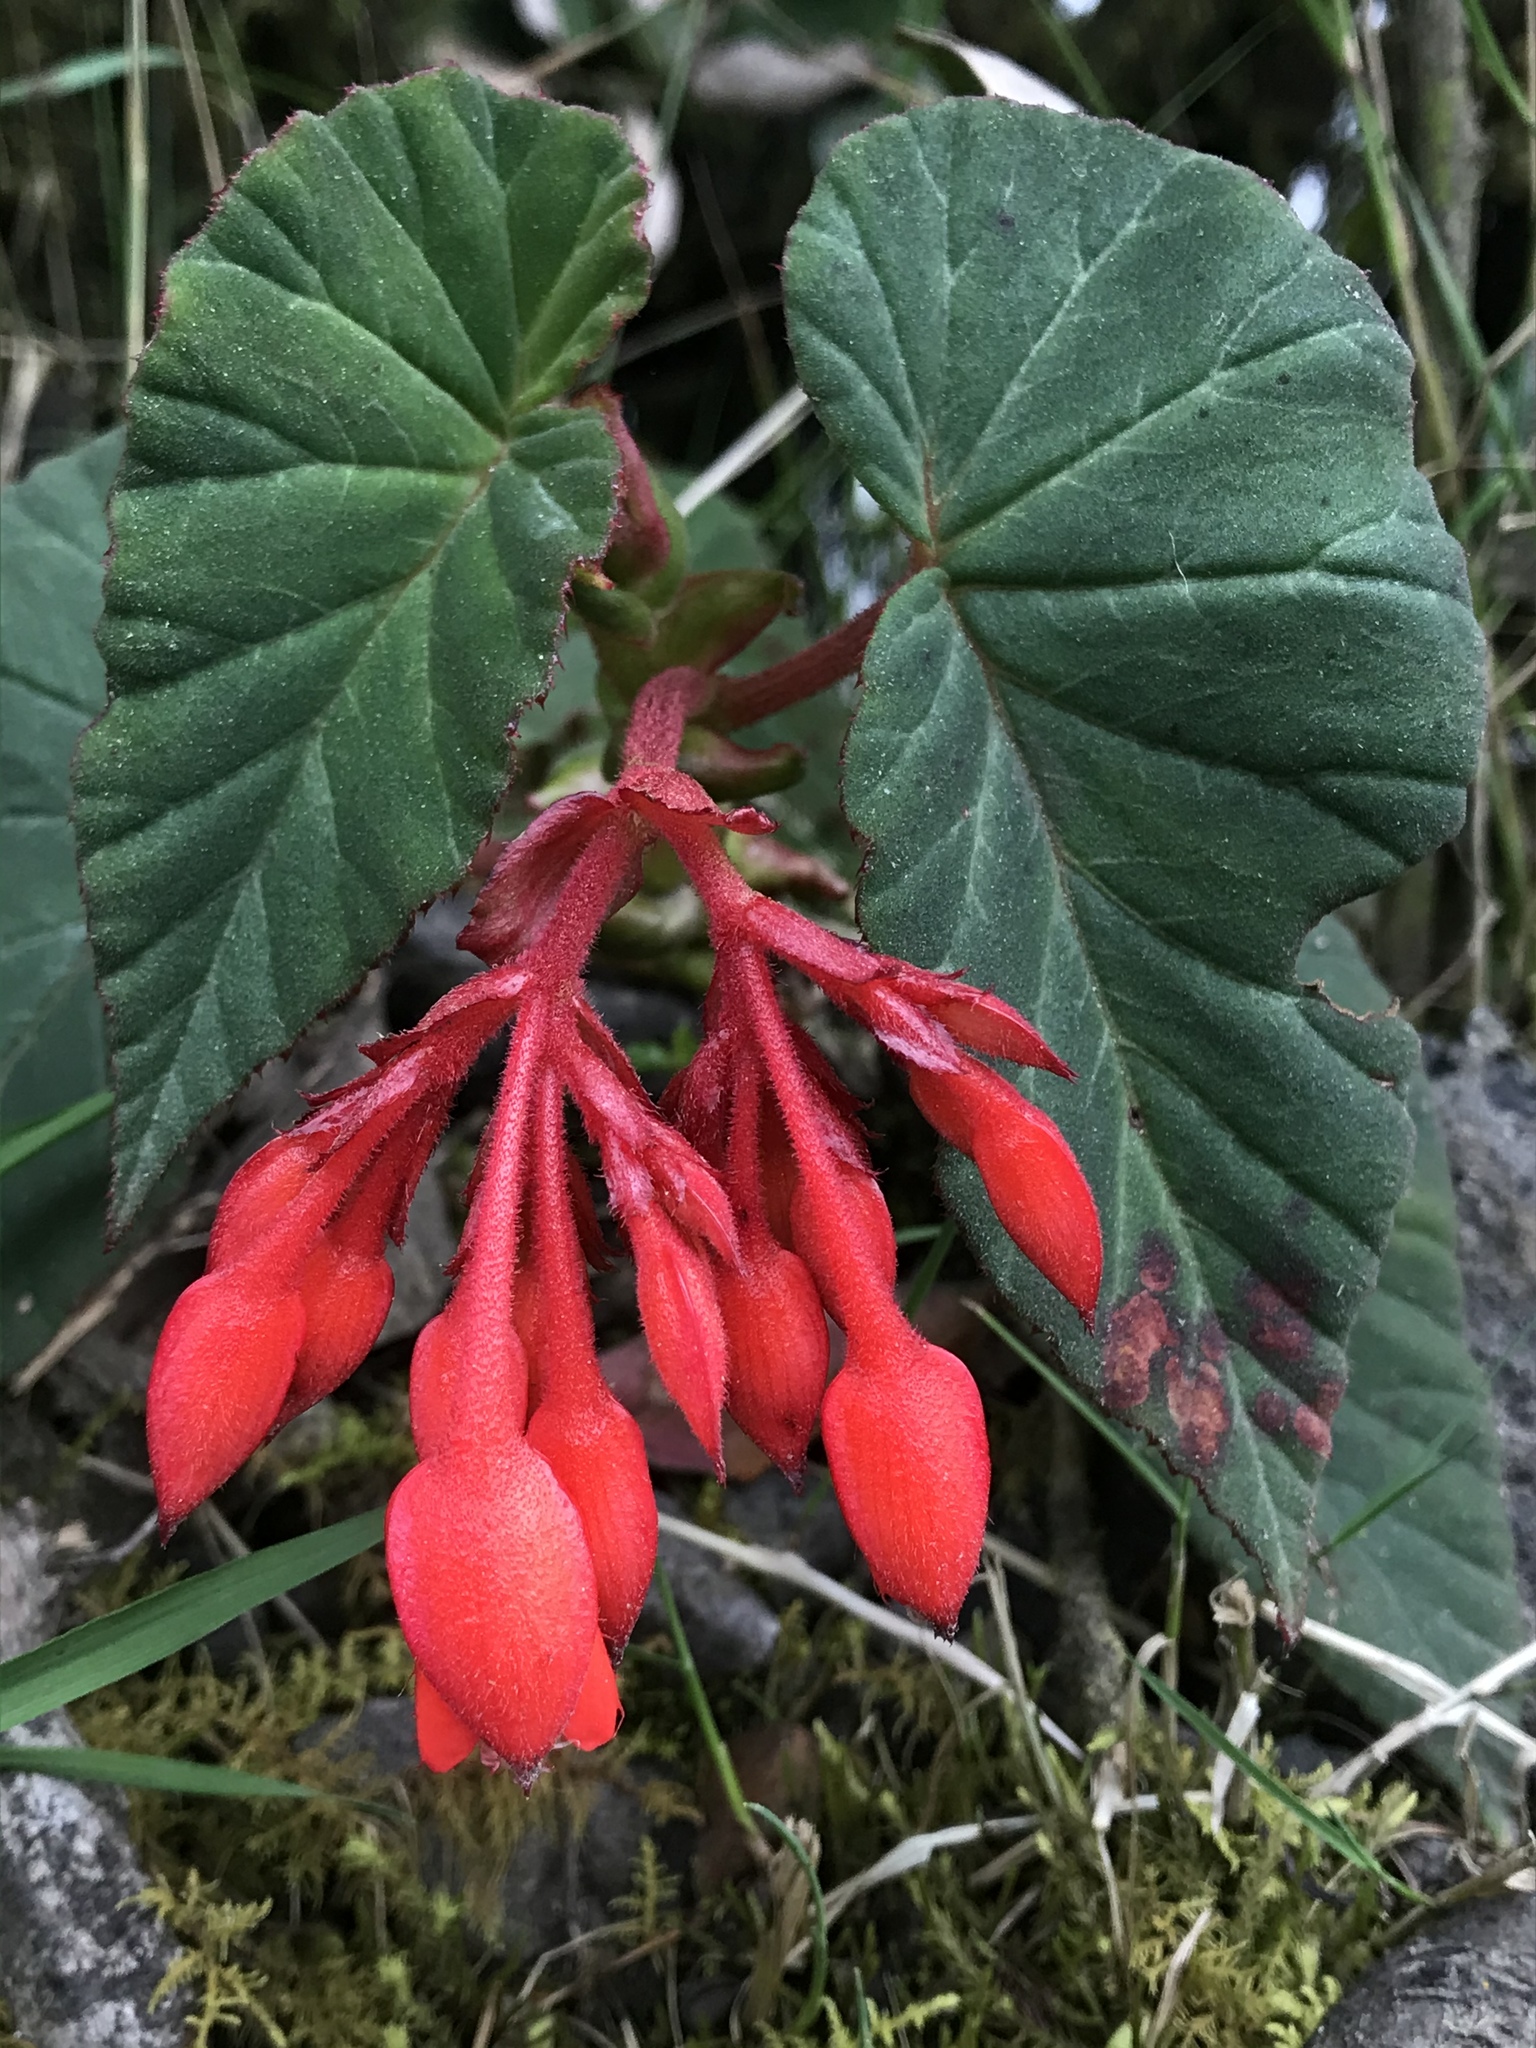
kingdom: Plantae
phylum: Tracheophyta
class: Magnoliopsida
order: Cucurbitales
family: Begoniaceae
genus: Begonia
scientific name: Begonia ferruginea
